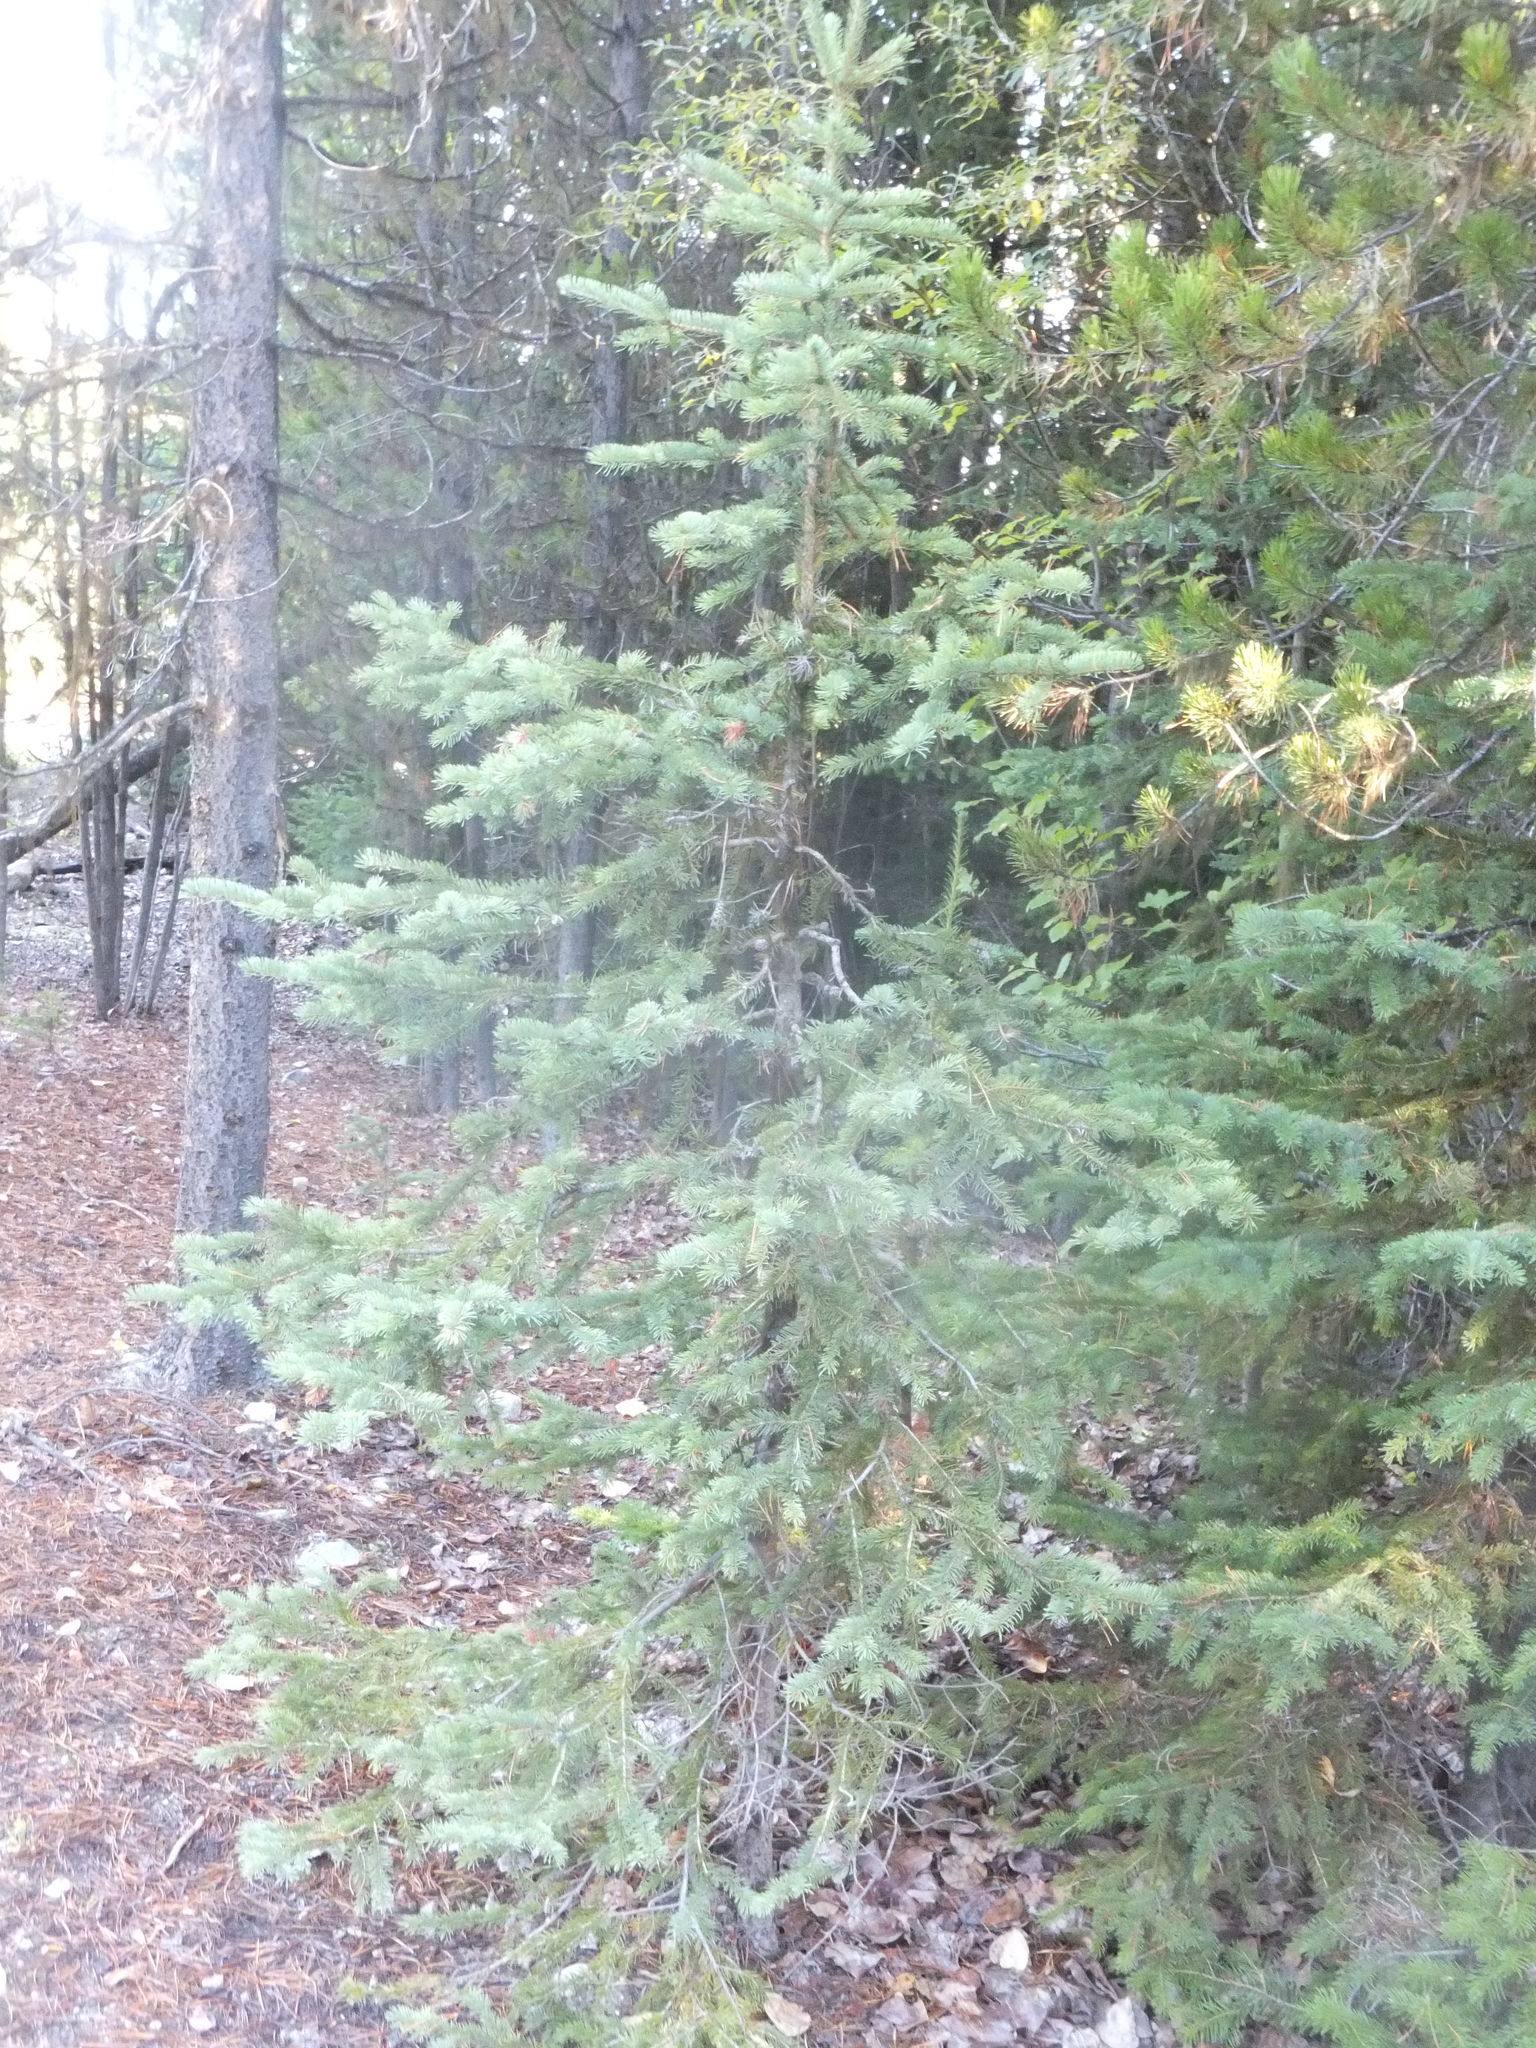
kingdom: Plantae
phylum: Tracheophyta
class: Pinopsida
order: Pinales
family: Pinaceae
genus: Pseudotsuga
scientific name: Pseudotsuga menziesii
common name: Douglas fir
